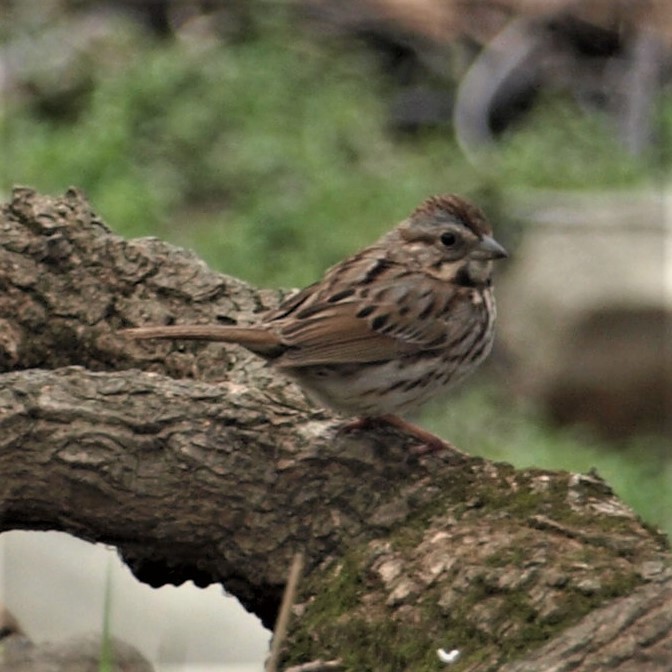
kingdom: Animalia
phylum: Chordata
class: Aves
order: Passeriformes
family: Passerellidae
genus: Melospiza
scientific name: Melospiza melodia
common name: Song sparrow
